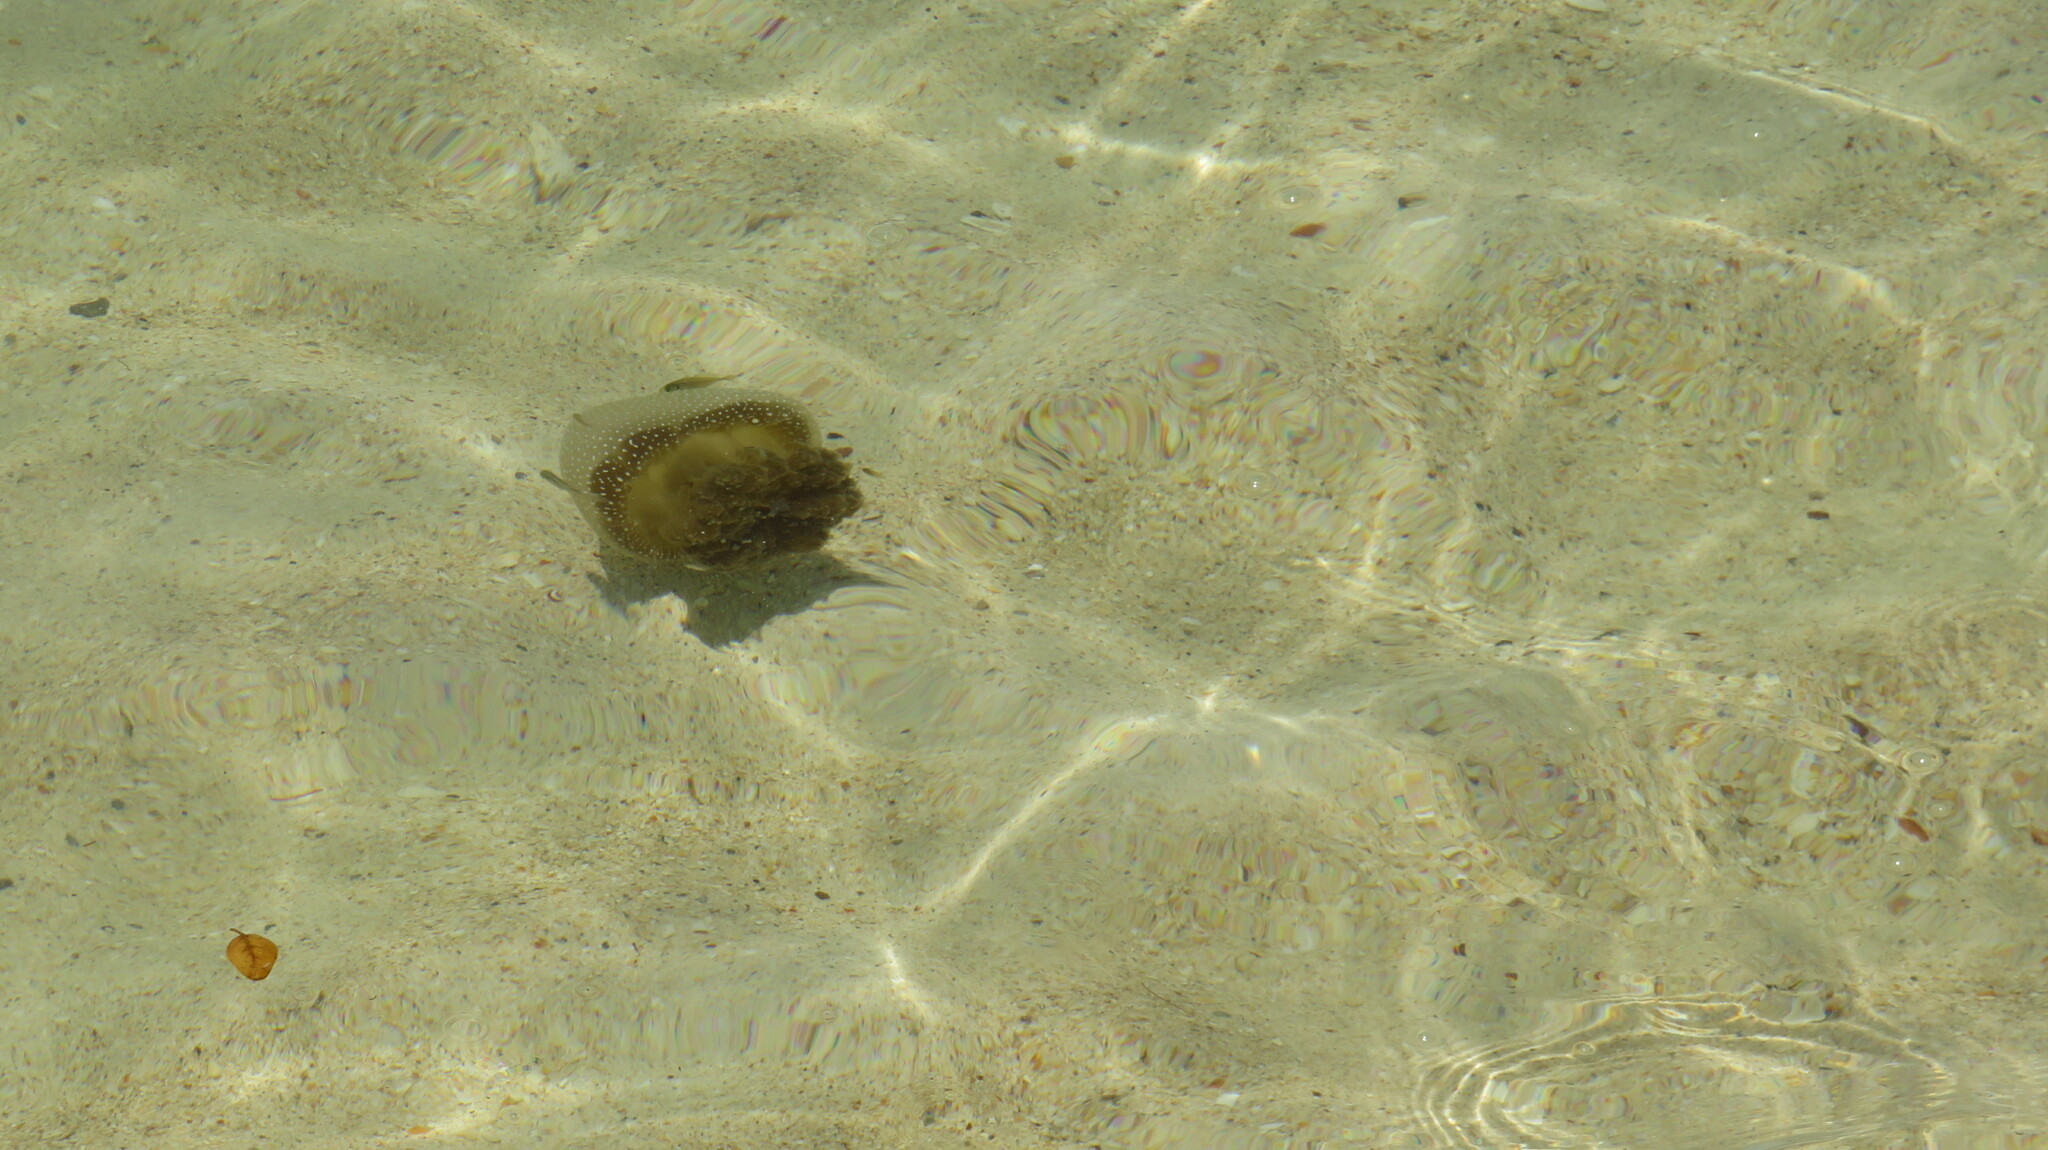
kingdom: Animalia
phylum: Cnidaria
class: Scyphozoa
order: Rhizostomeae
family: Mastigiidae
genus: Phyllorhiza
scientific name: Phyllorhiza punctata
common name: Australian spotted jellyfish
